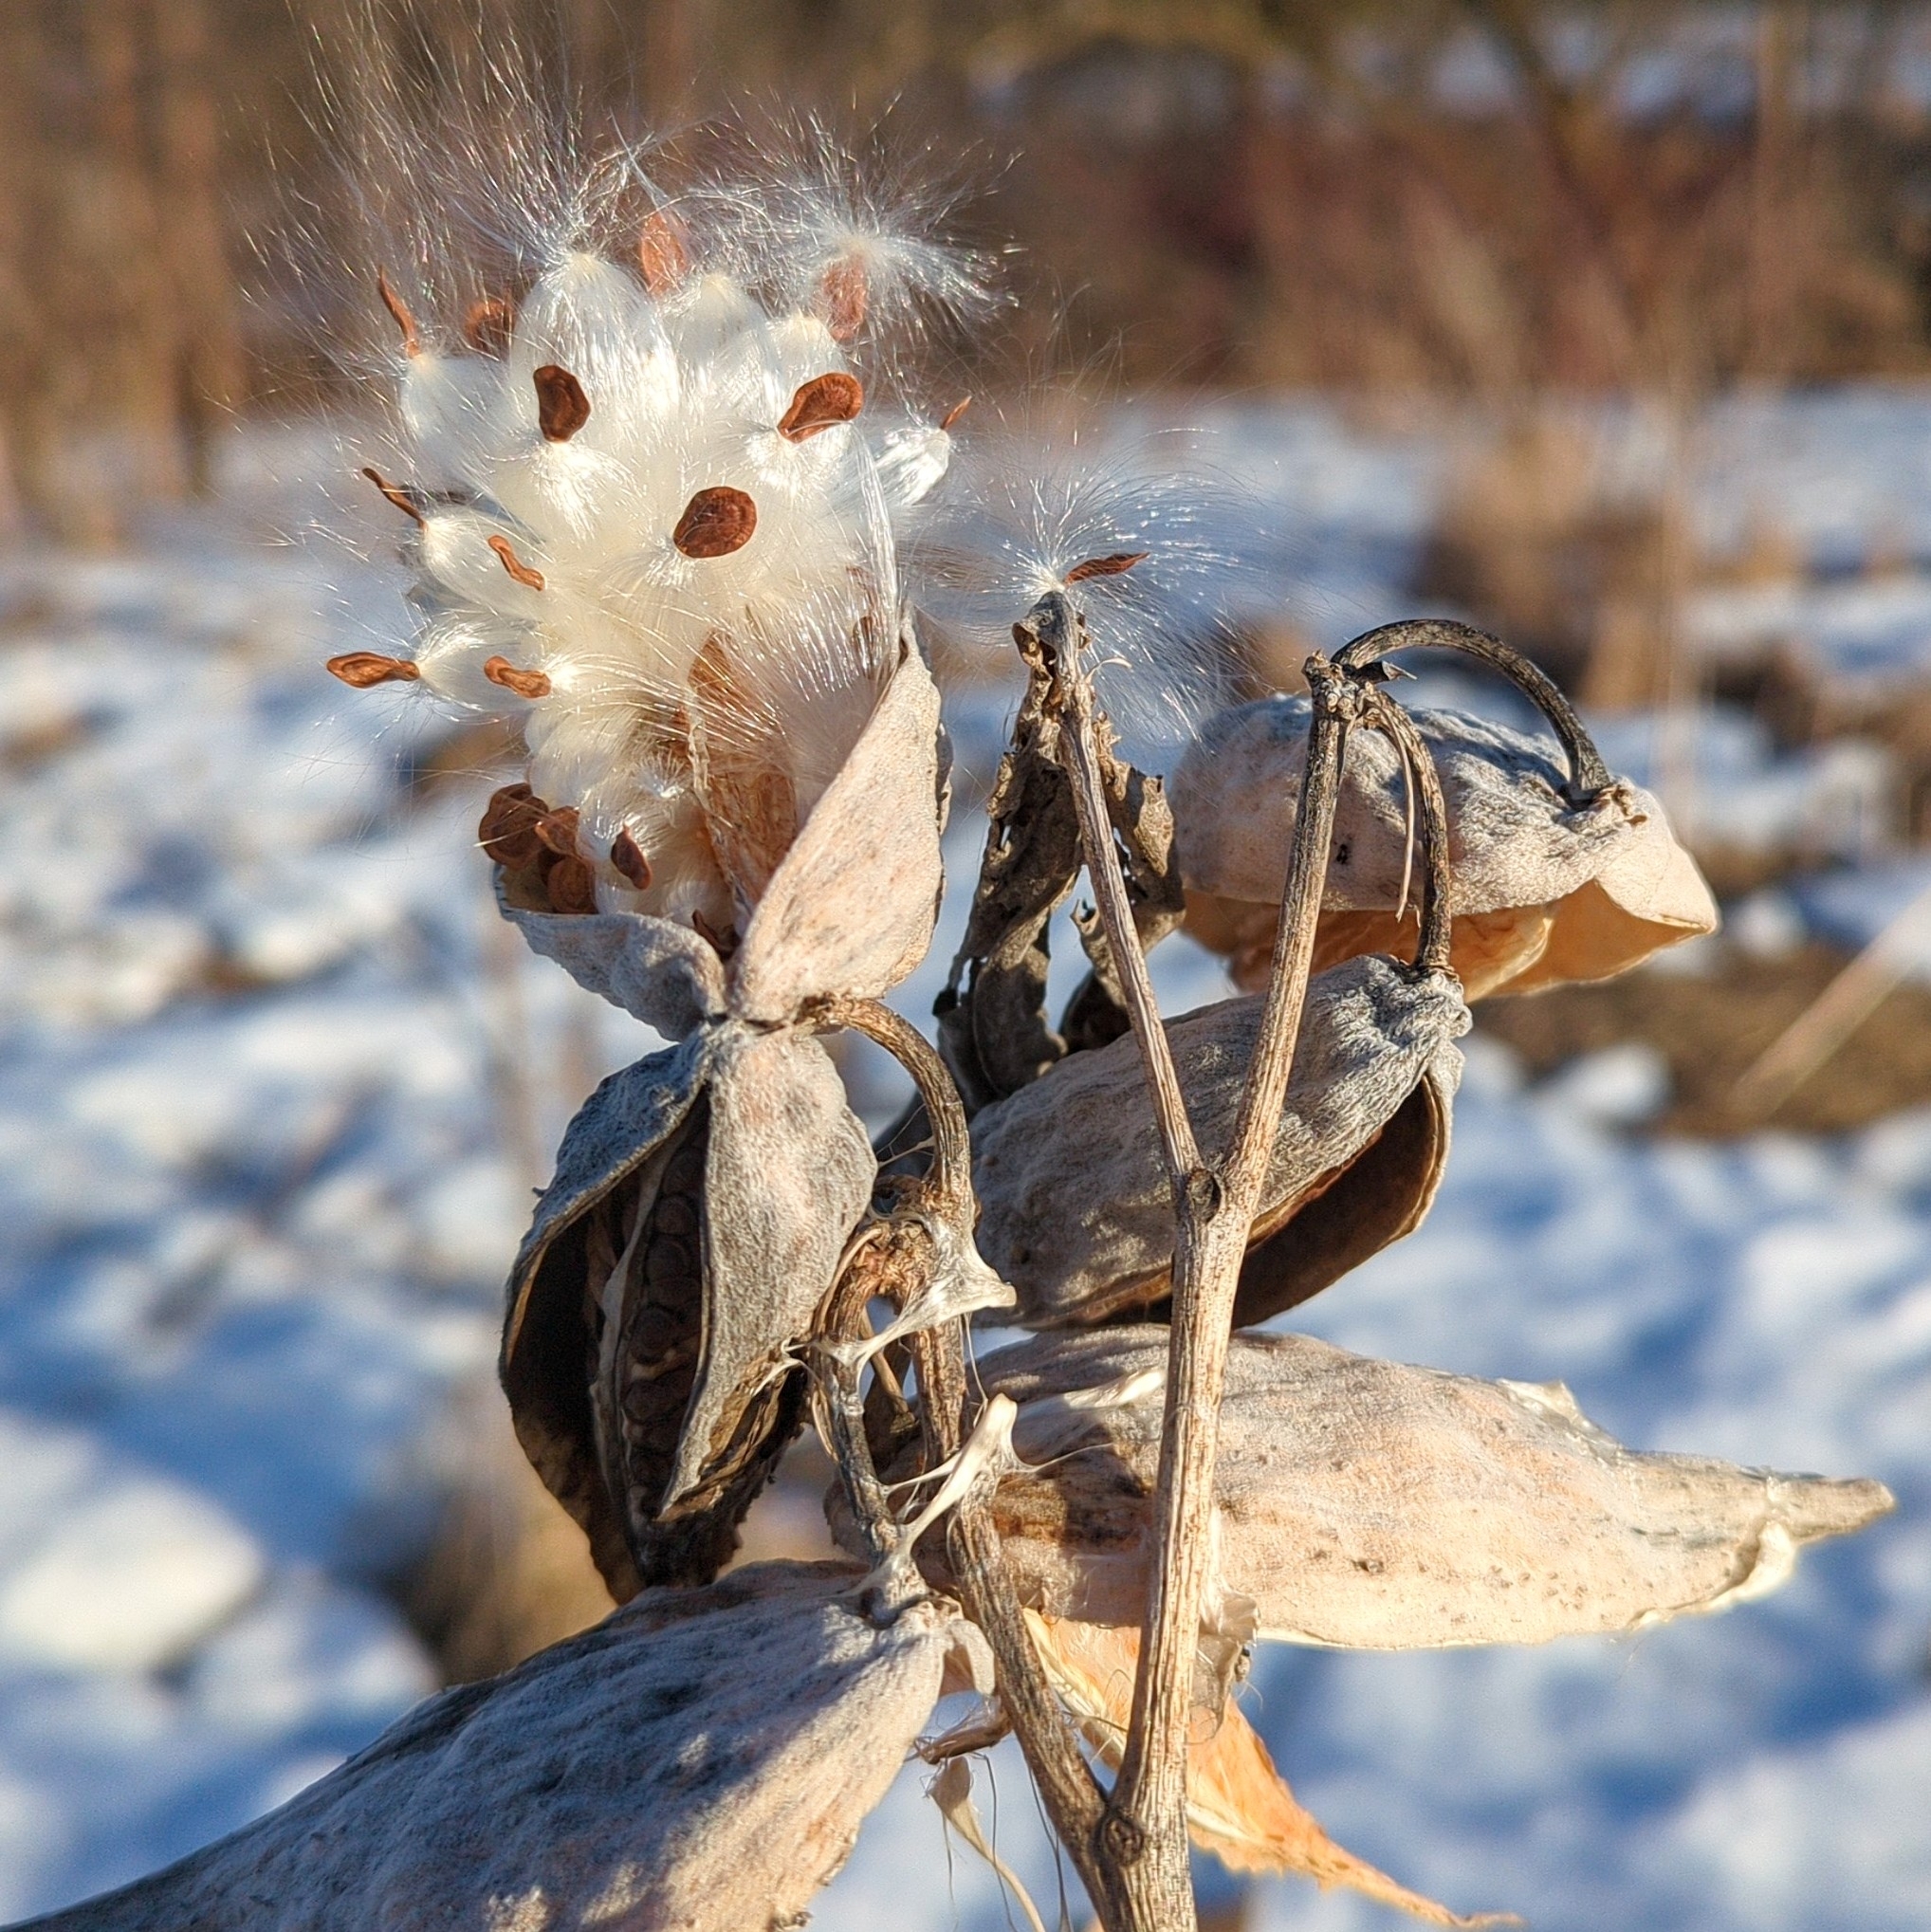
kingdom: Plantae
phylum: Tracheophyta
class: Magnoliopsida
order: Gentianales
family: Apocynaceae
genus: Asclepias
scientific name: Asclepias syriaca
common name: Common milkweed
